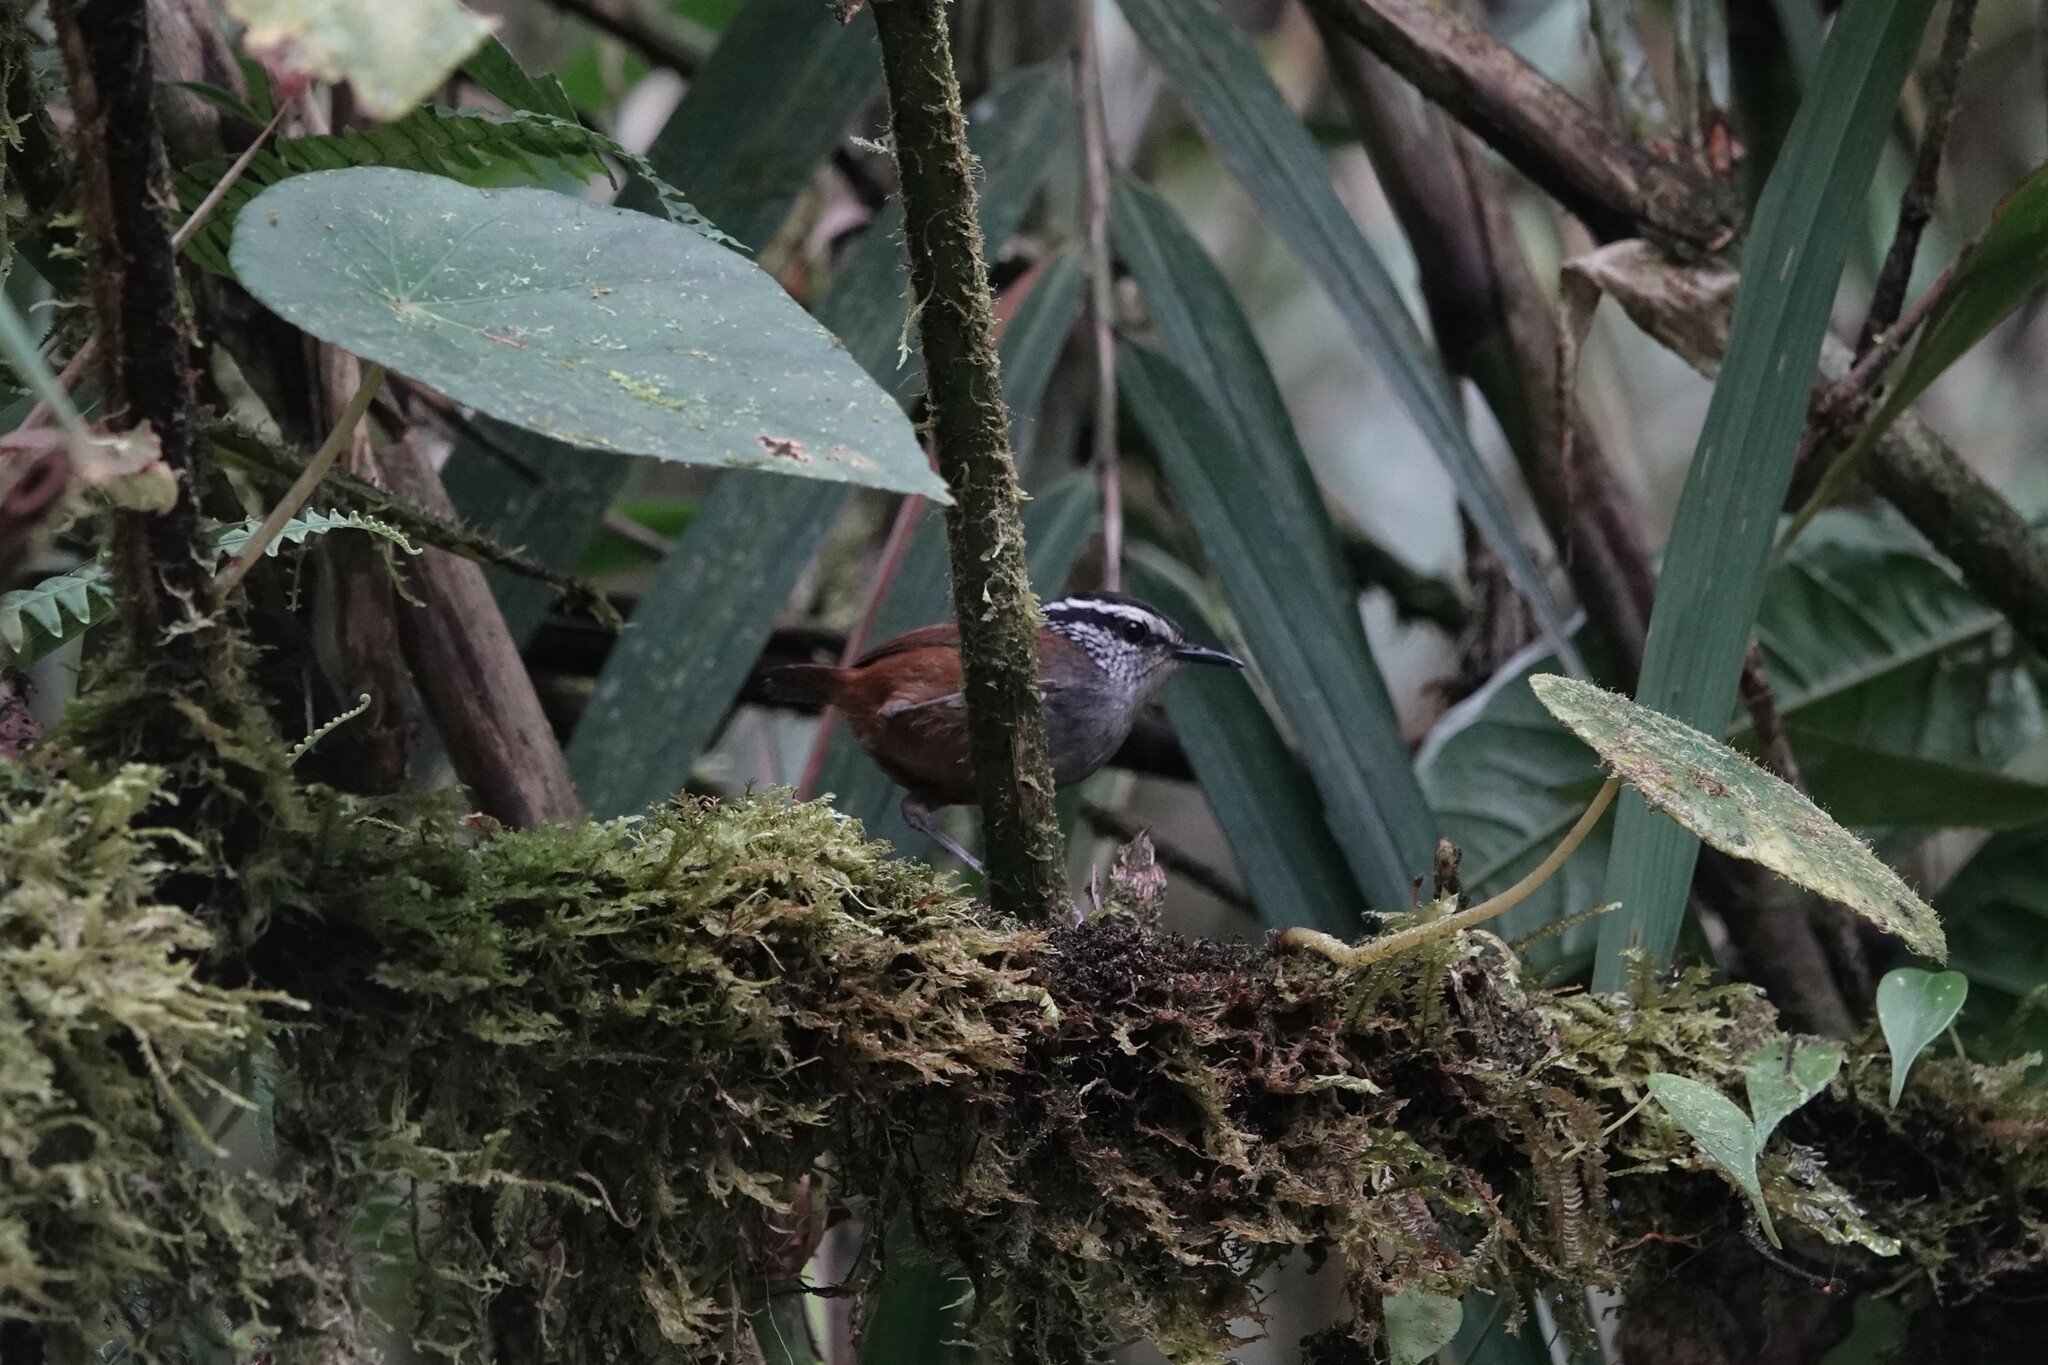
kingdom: Animalia
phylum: Chordata
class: Aves
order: Passeriformes
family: Troglodytidae
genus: Henicorhina
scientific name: Henicorhina leucophrys
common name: Gray-breasted wood-wren
